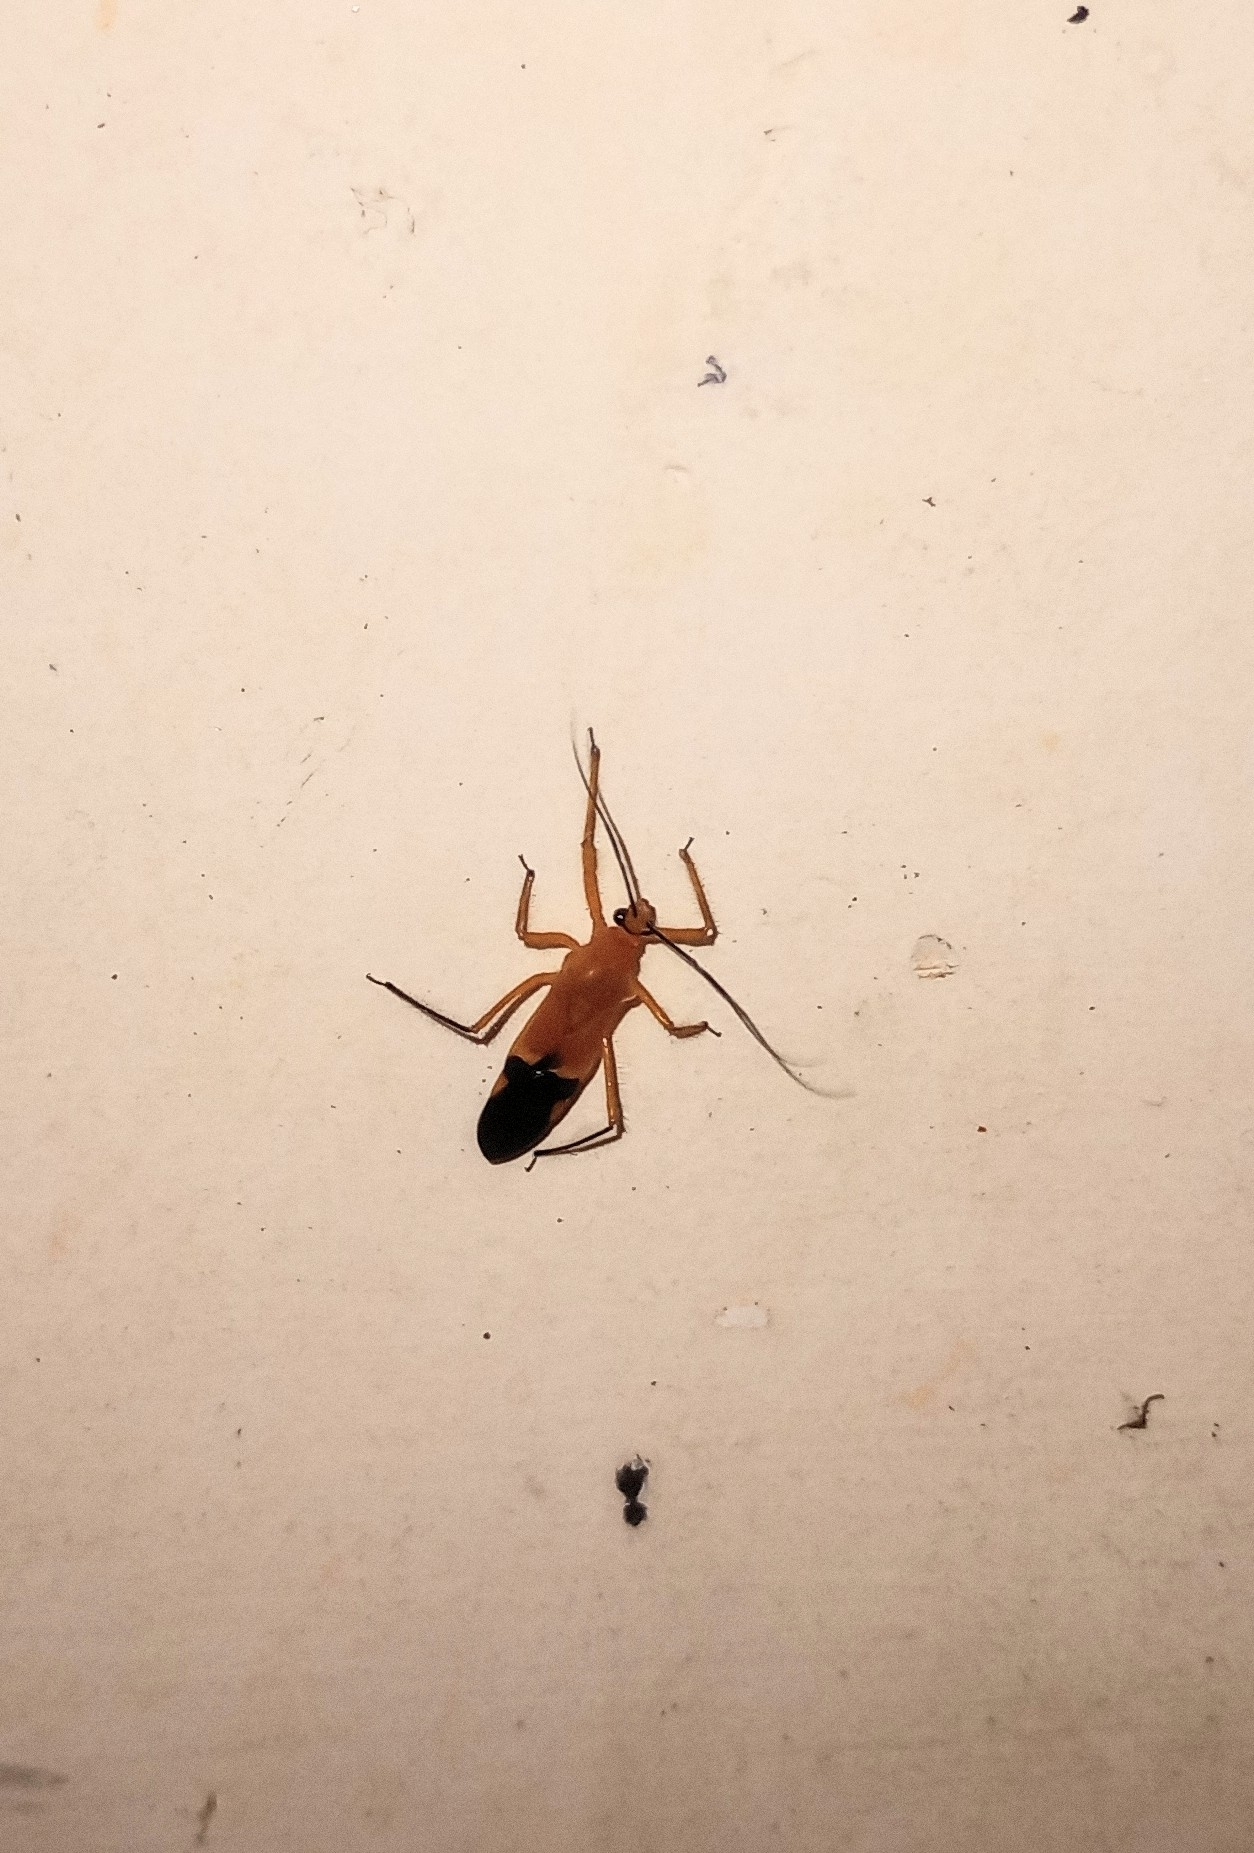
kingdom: Animalia
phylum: Arthropoda
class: Insecta
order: Hemiptera
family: Reduviidae
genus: Cutocoris
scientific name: Cutocoris
